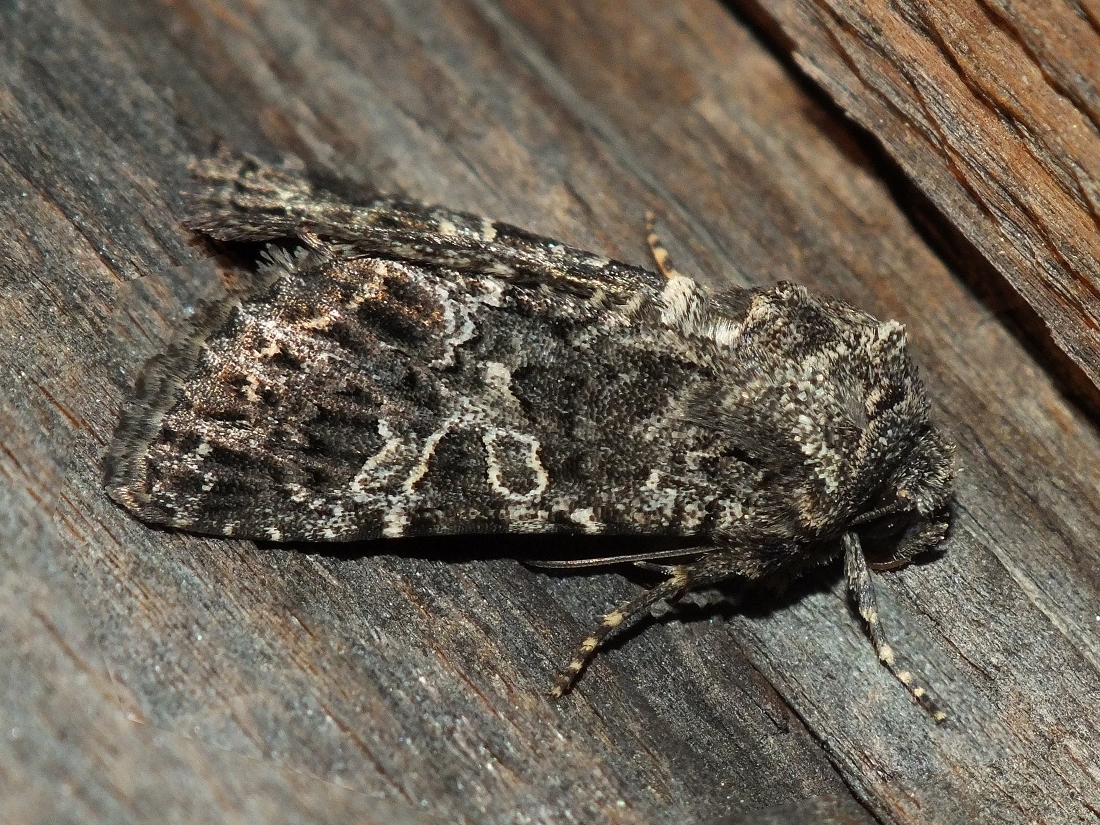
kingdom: Animalia
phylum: Arthropoda
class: Insecta
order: Lepidoptera
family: Noctuidae
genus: Hadena
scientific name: Hadena capsincola
